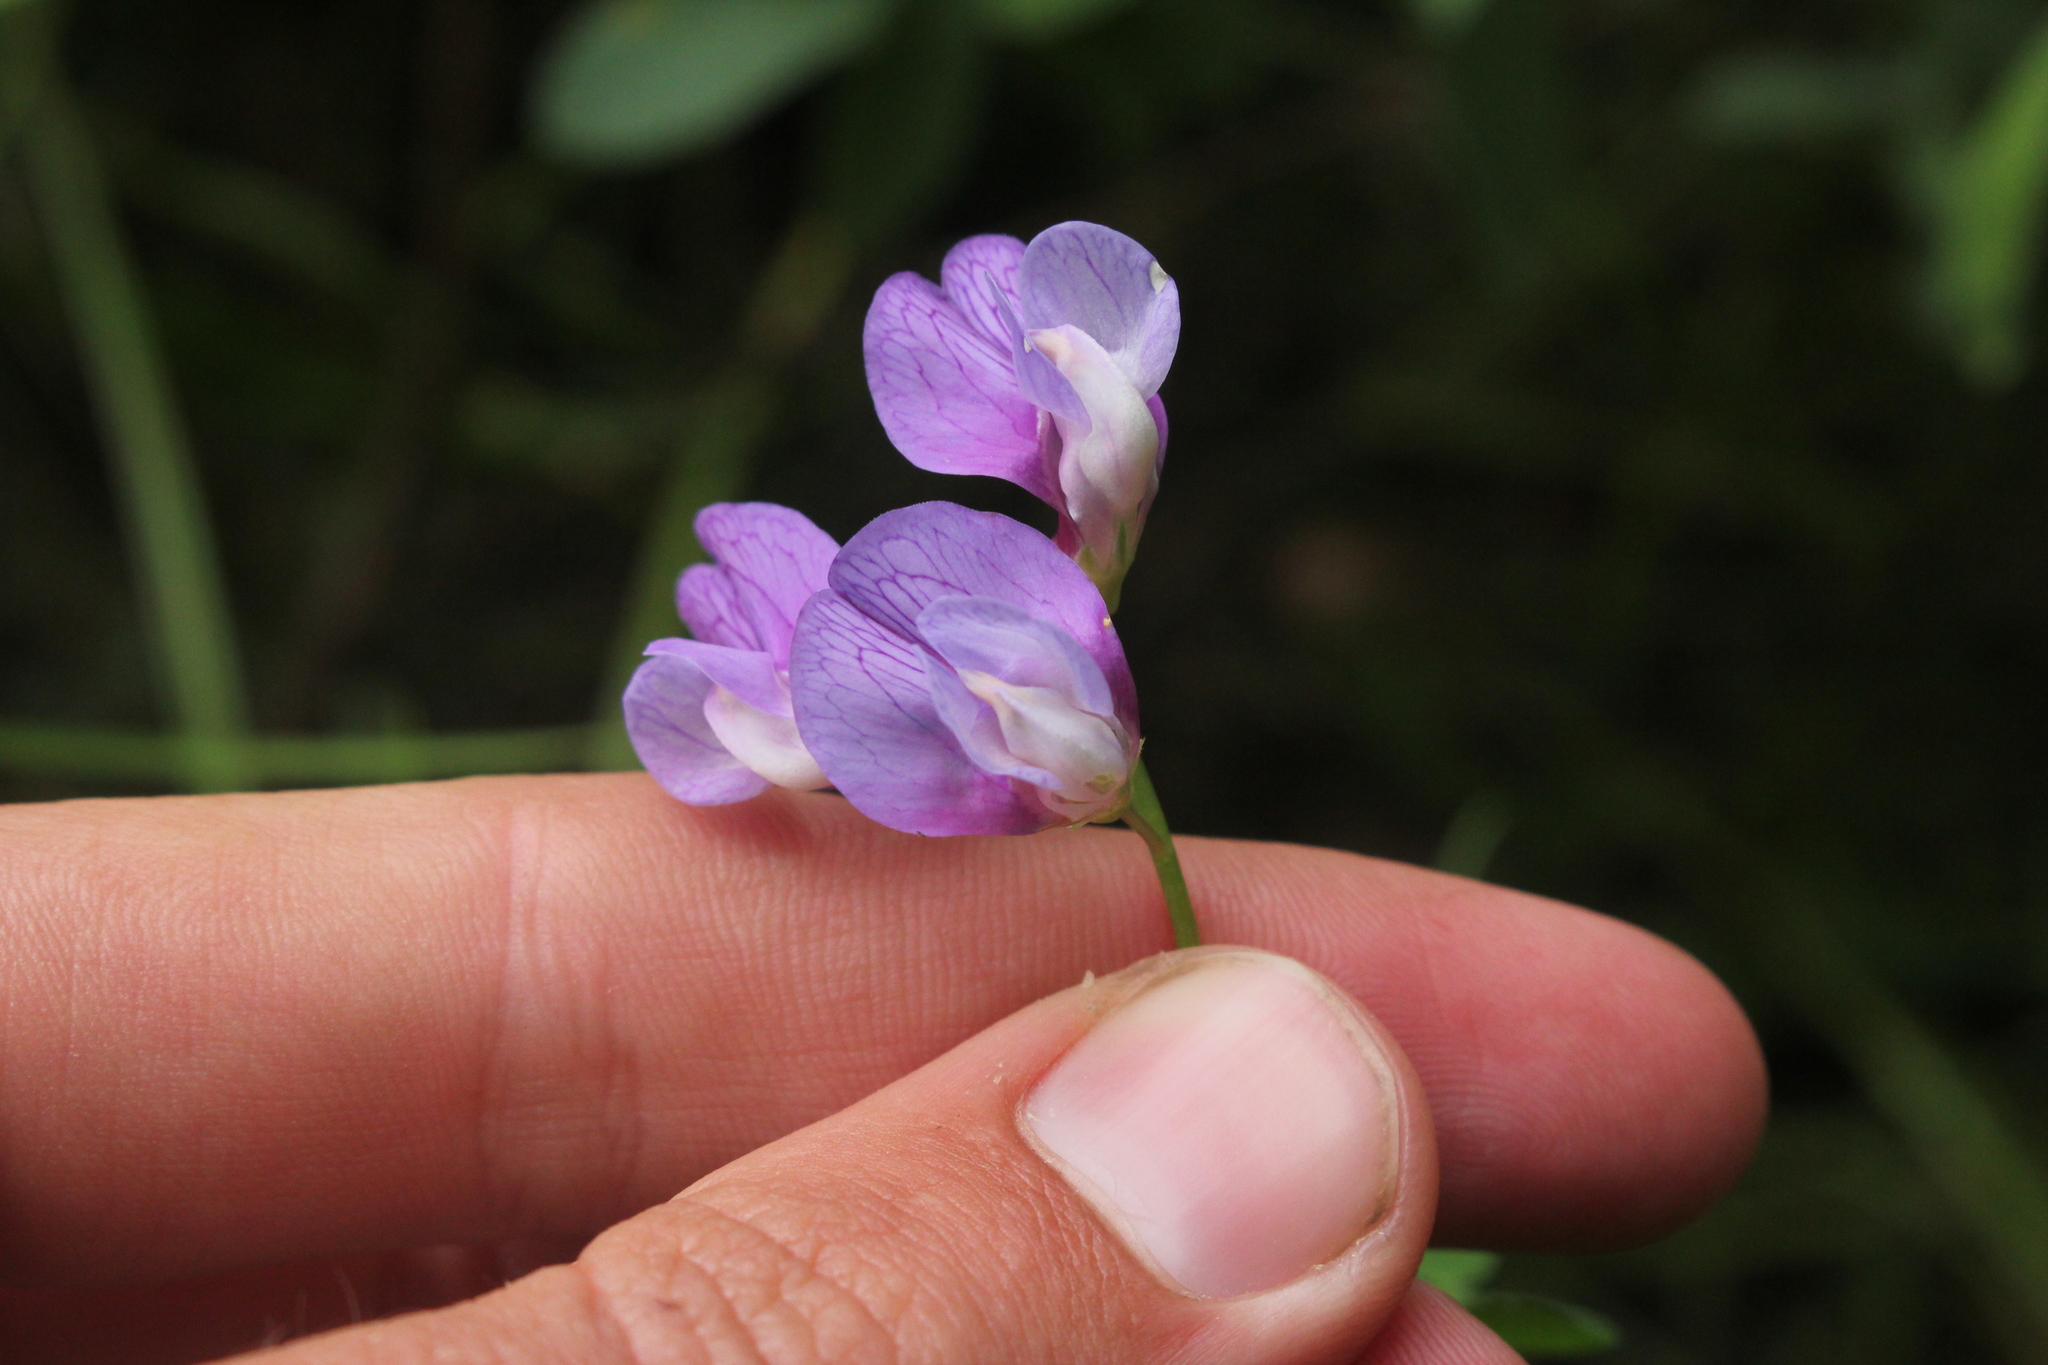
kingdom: Plantae
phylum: Tracheophyta
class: Magnoliopsida
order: Fabales
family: Fabaceae
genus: Lathyrus
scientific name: Lathyrus palustris
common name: Marsh pea
